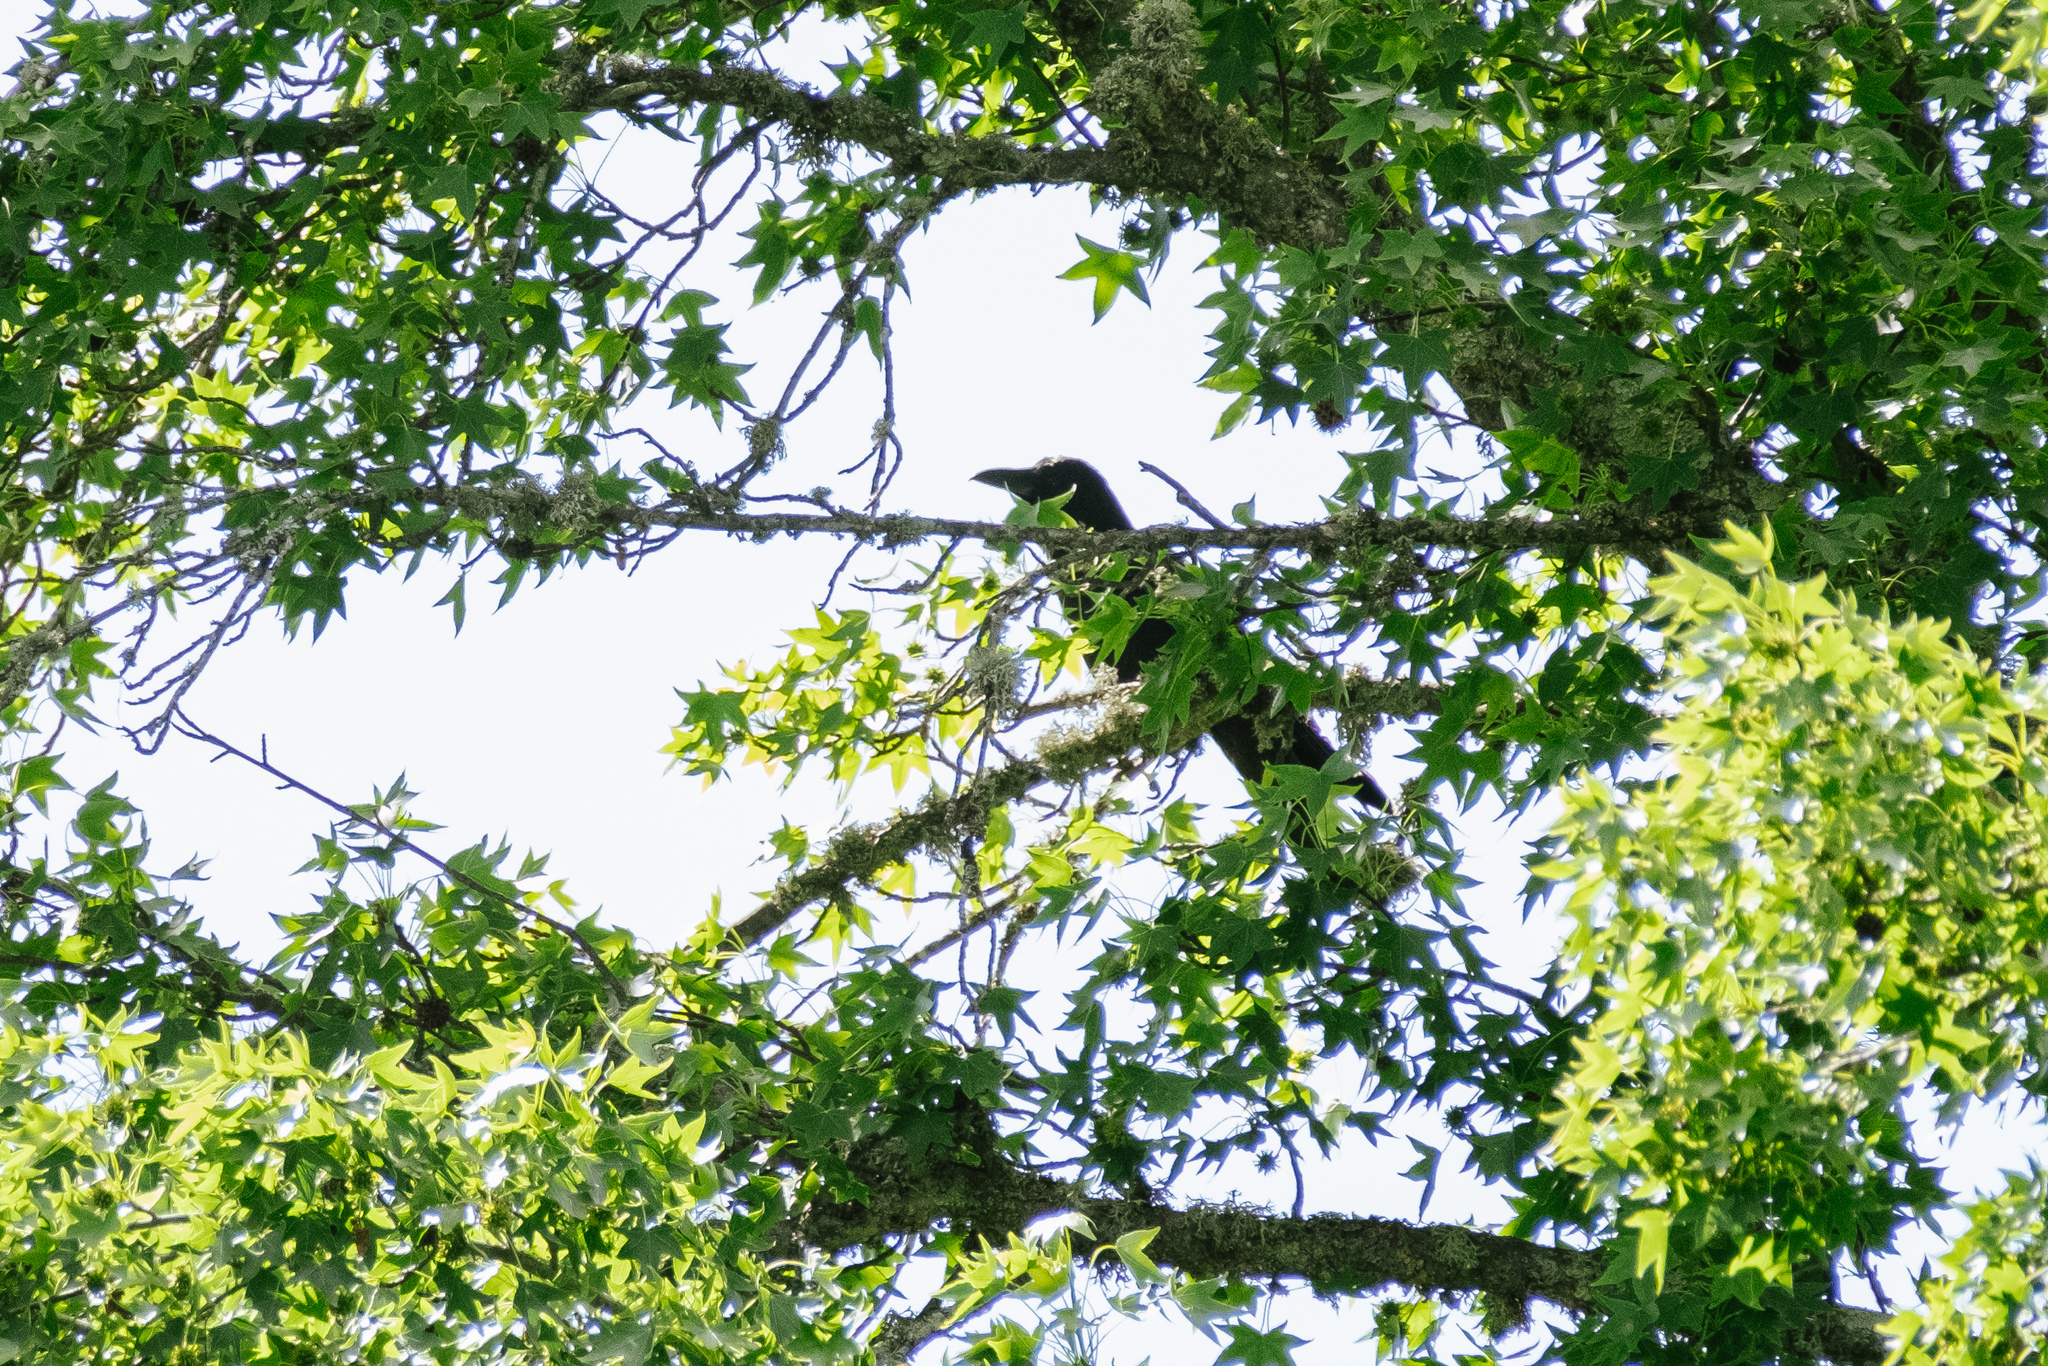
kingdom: Animalia
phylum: Chordata
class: Aves
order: Passeriformes
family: Corvidae
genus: Corvus
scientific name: Corvus corone
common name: Carrion crow
